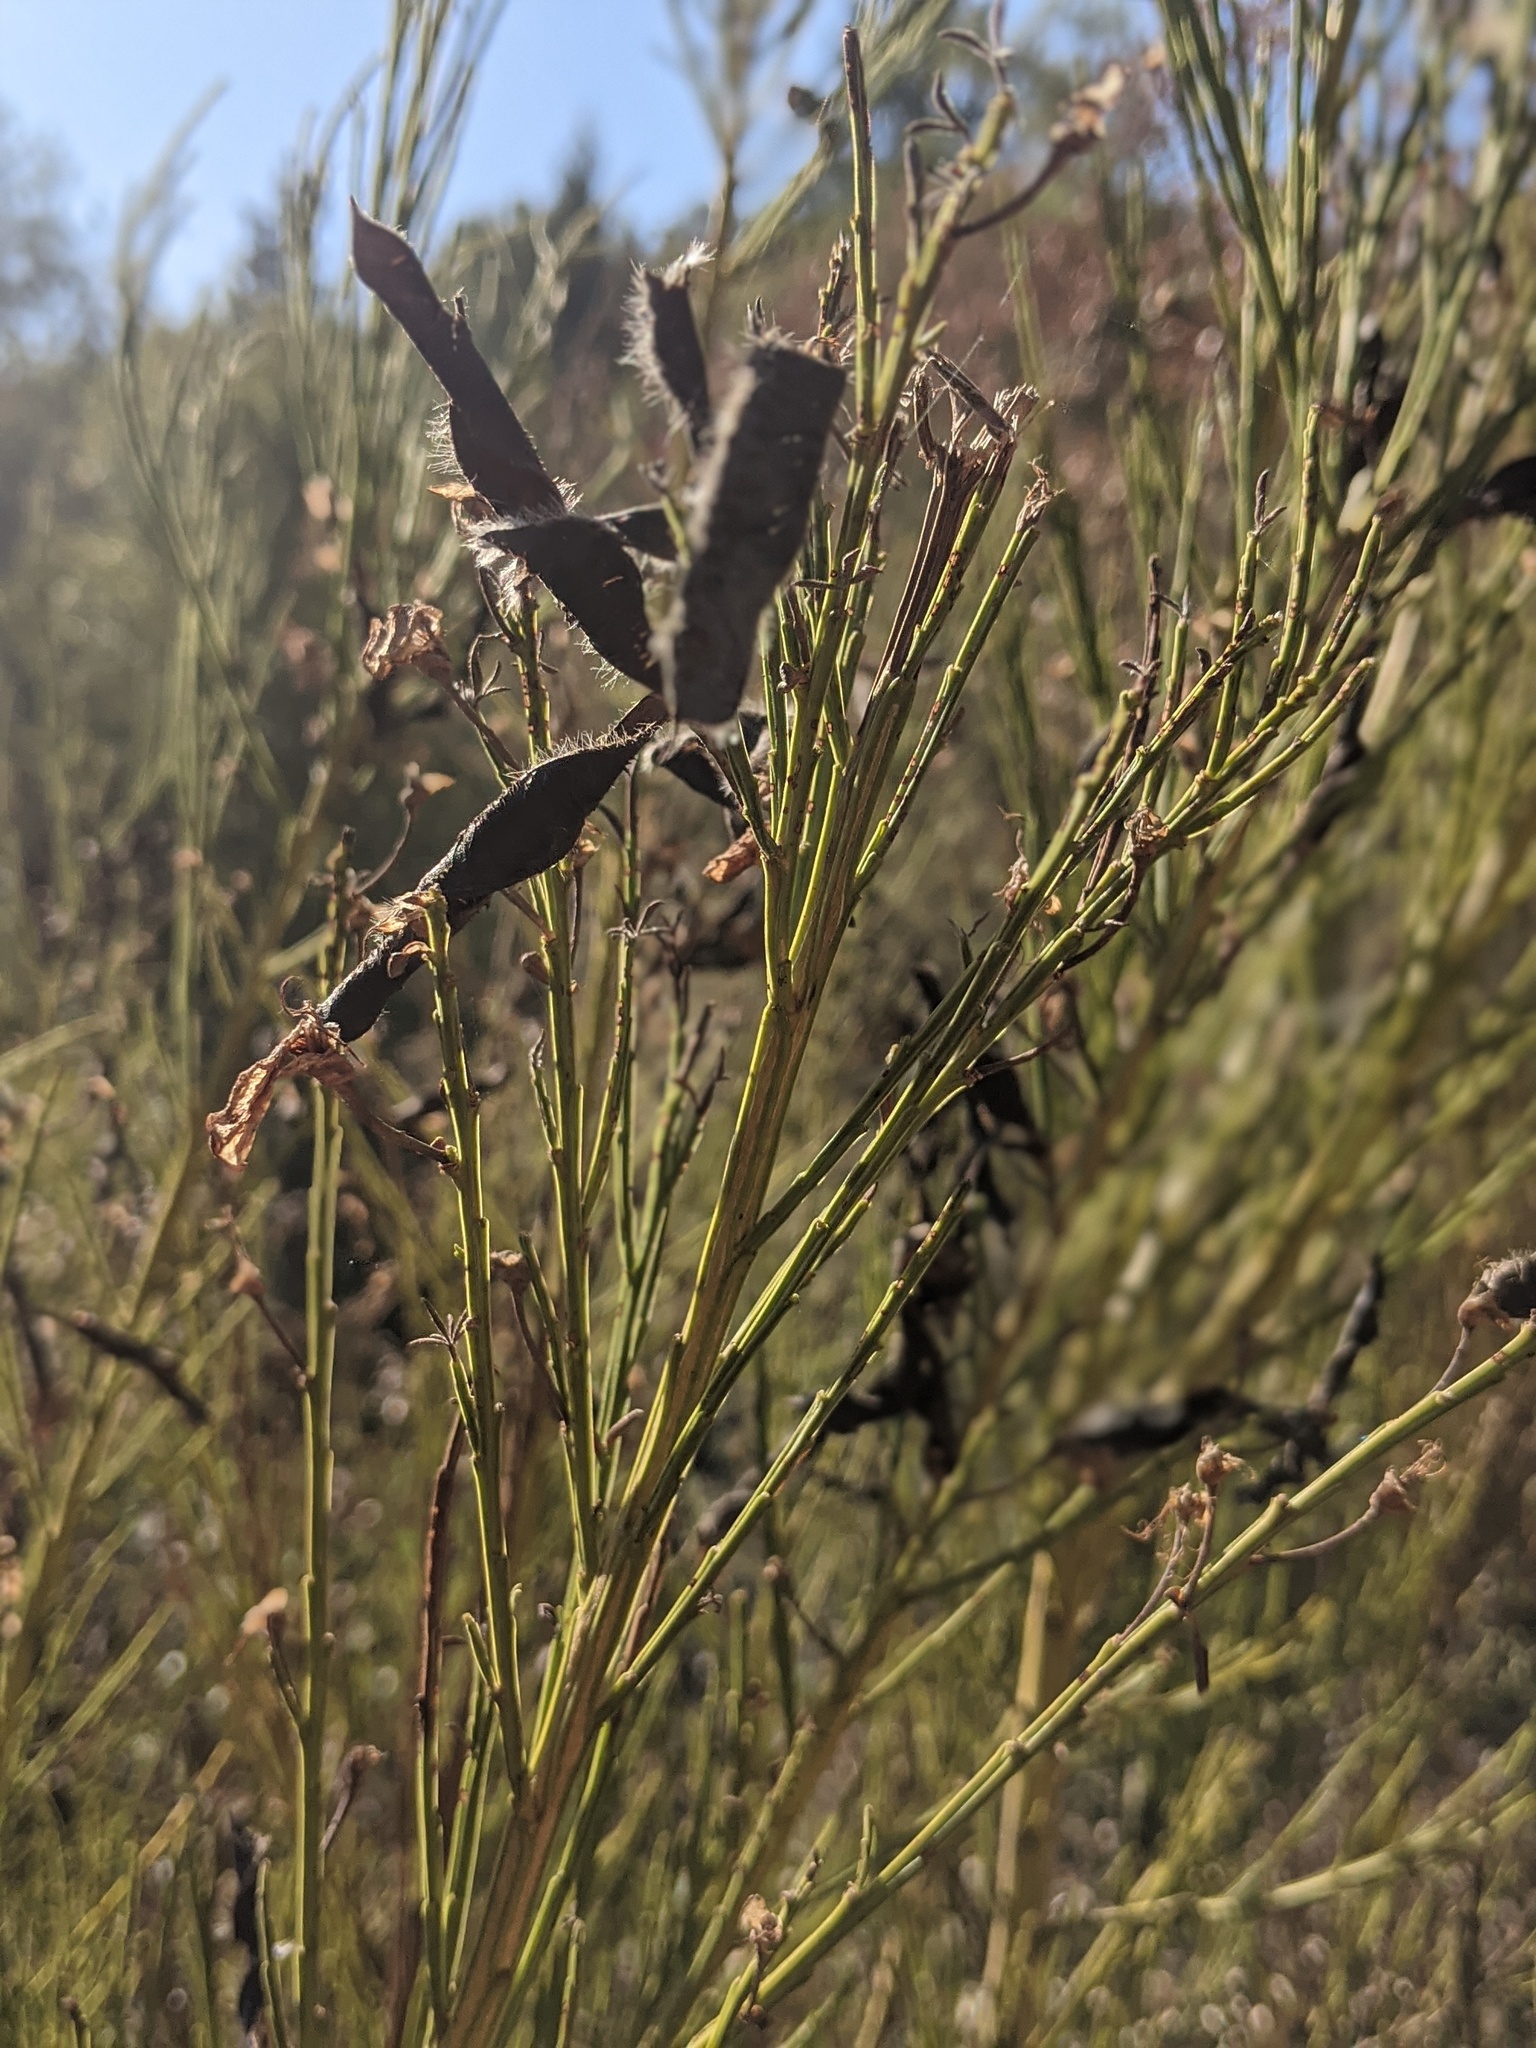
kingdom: Plantae
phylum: Tracheophyta
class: Magnoliopsida
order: Fabales
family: Fabaceae
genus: Cytisus
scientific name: Cytisus scoparius
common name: Scotch broom
